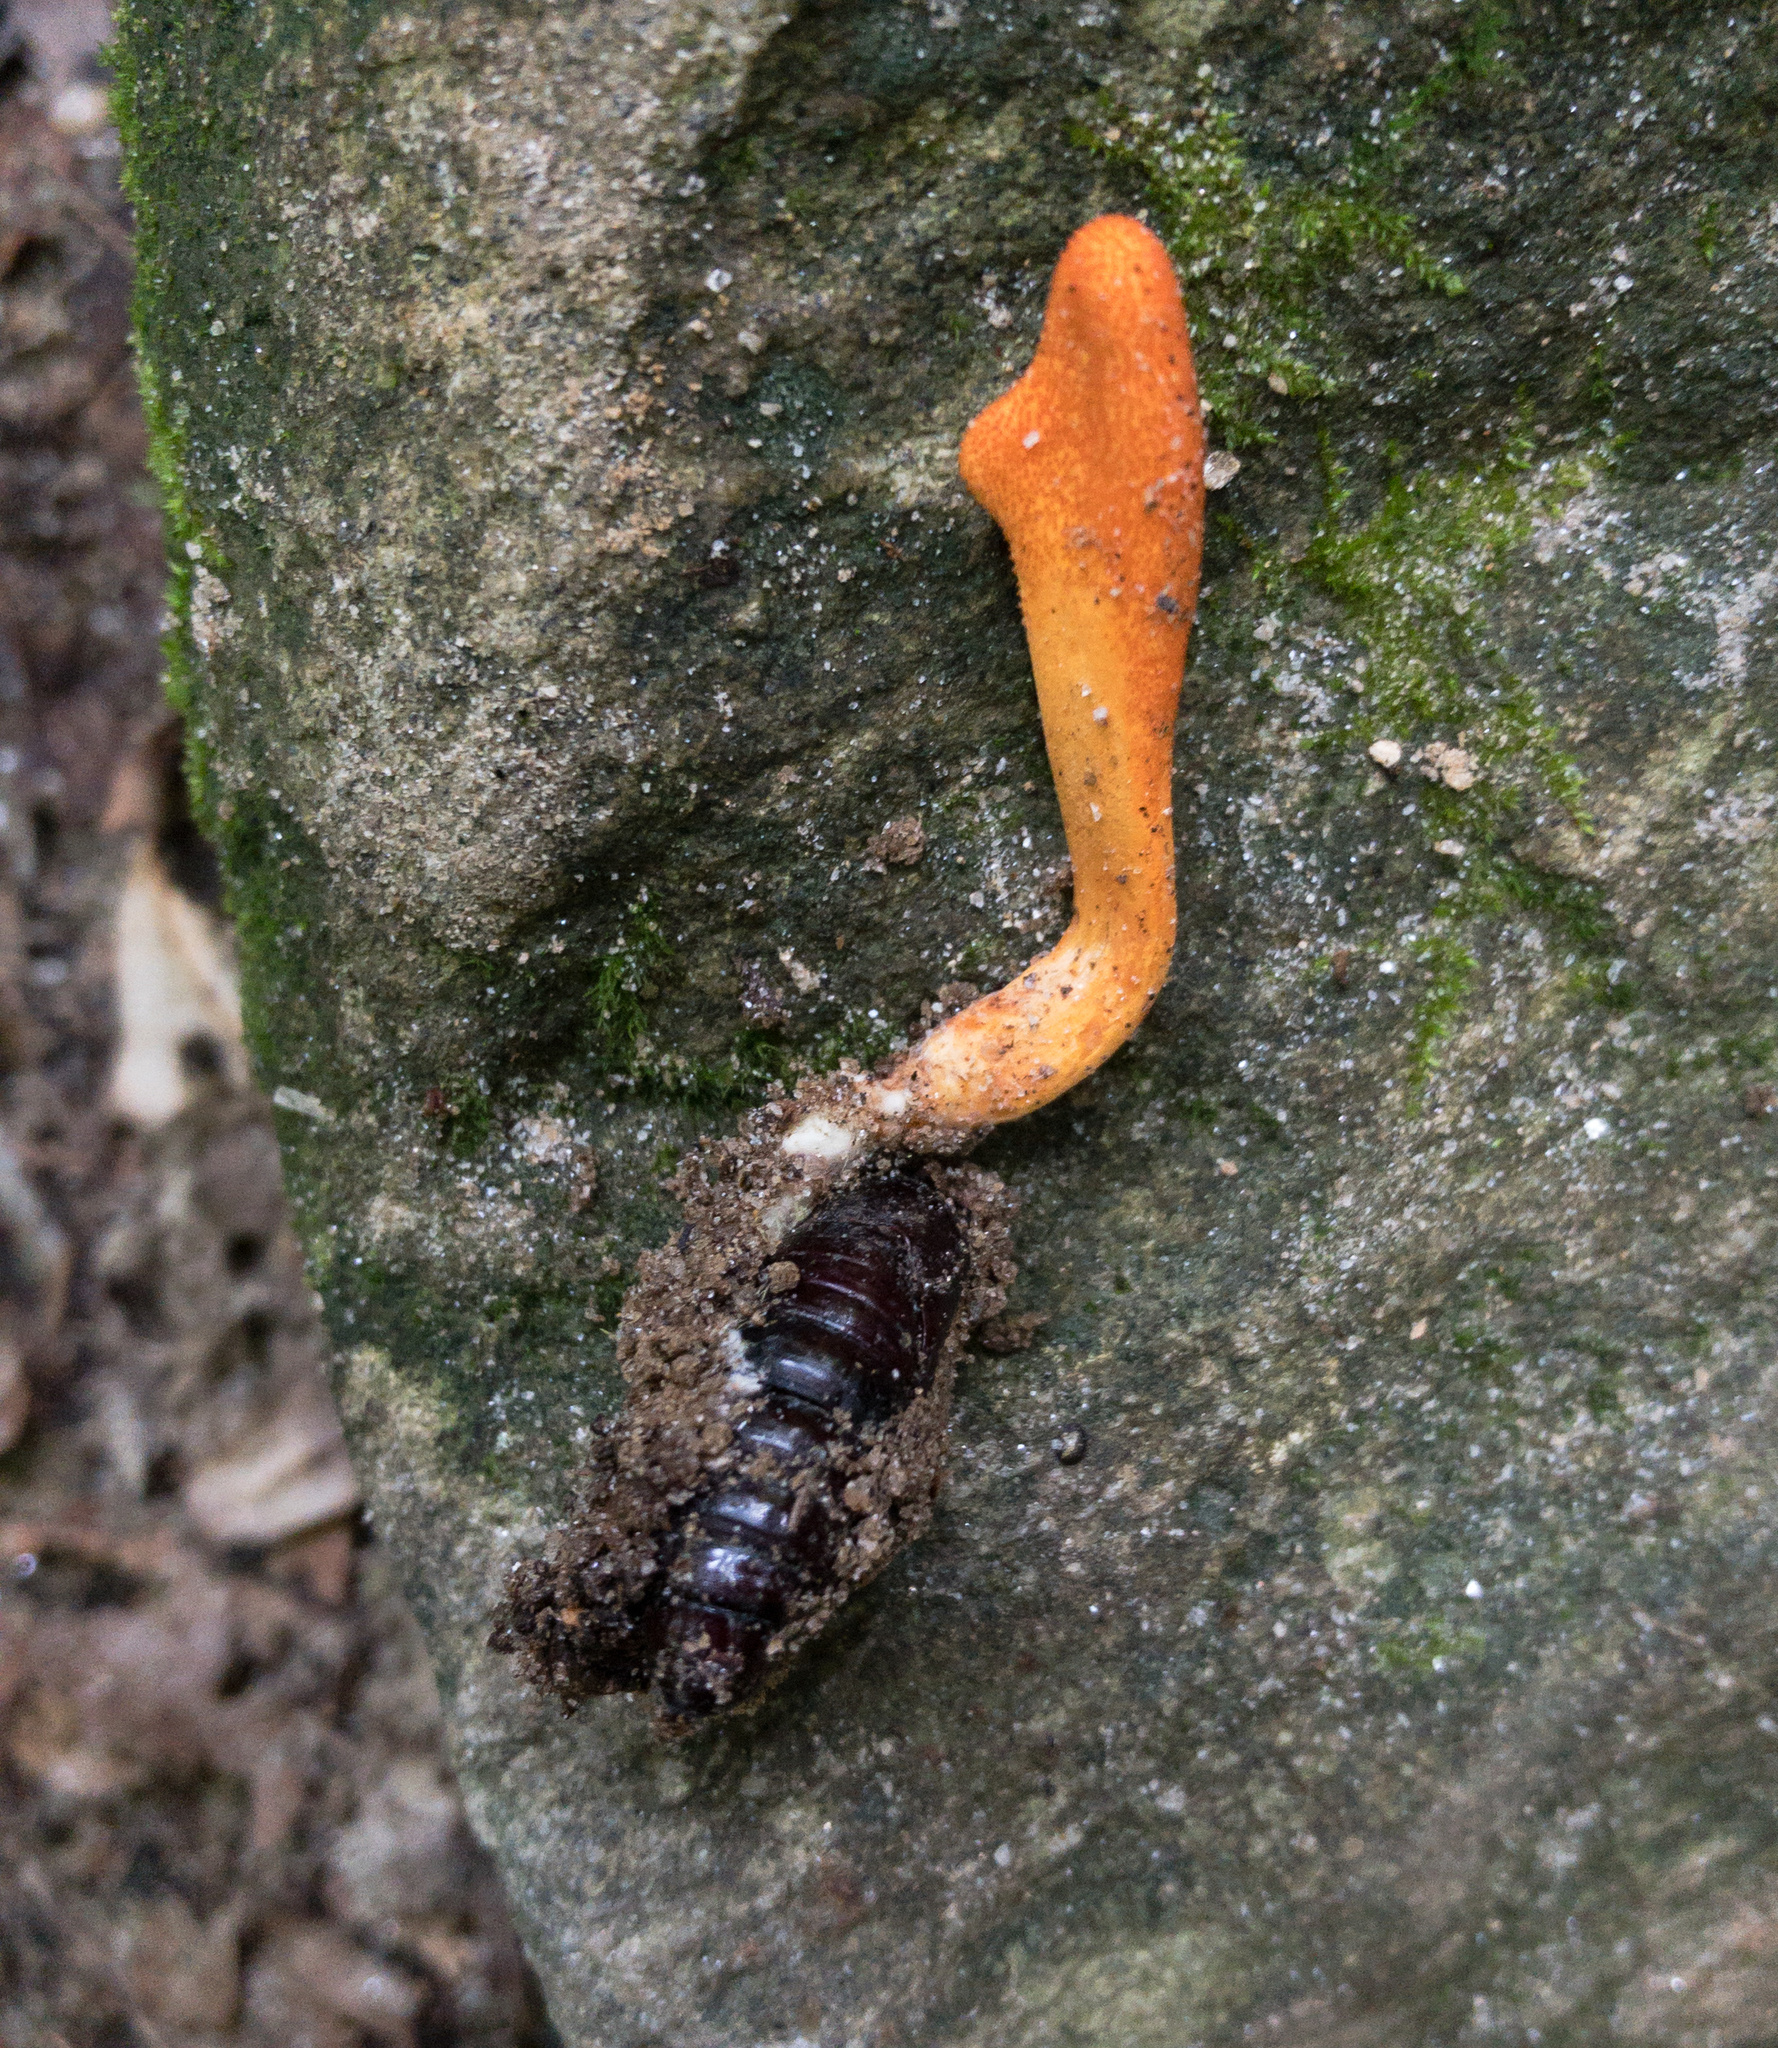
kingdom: Fungi
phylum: Ascomycota
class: Sordariomycetes
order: Hypocreales
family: Cordycipitaceae
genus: Cordyceps
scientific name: Cordyceps militaris
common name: Scarlet caterpillar fungus
